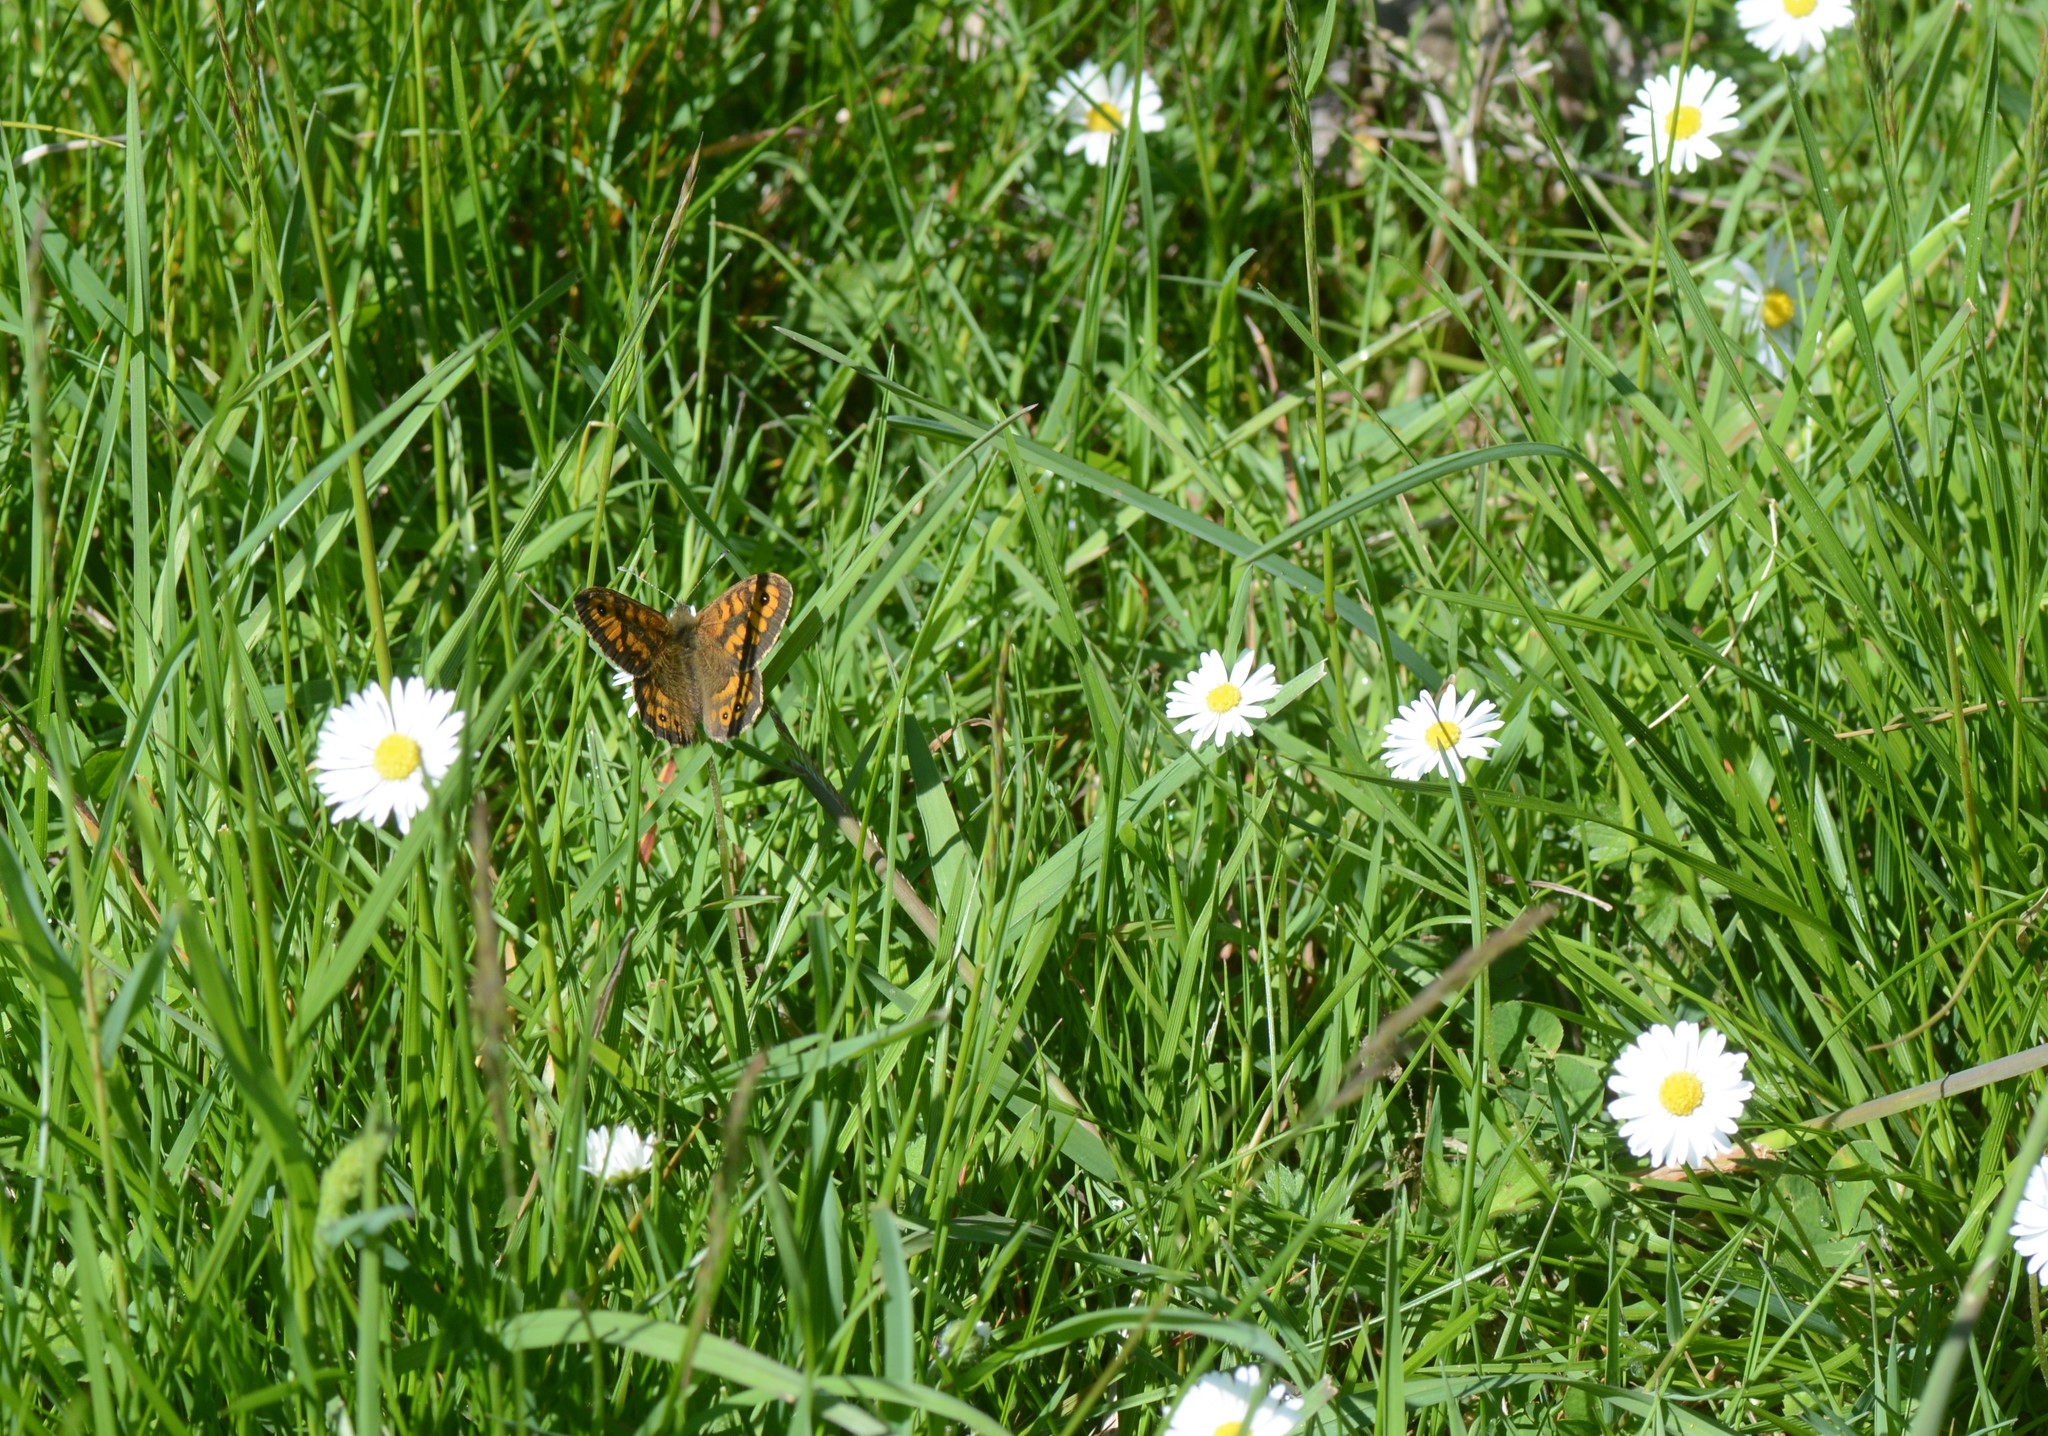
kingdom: Animalia
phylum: Arthropoda
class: Insecta
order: Lepidoptera
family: Nymphalidae
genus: Pararge
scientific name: Pararge Lasiommata megera
